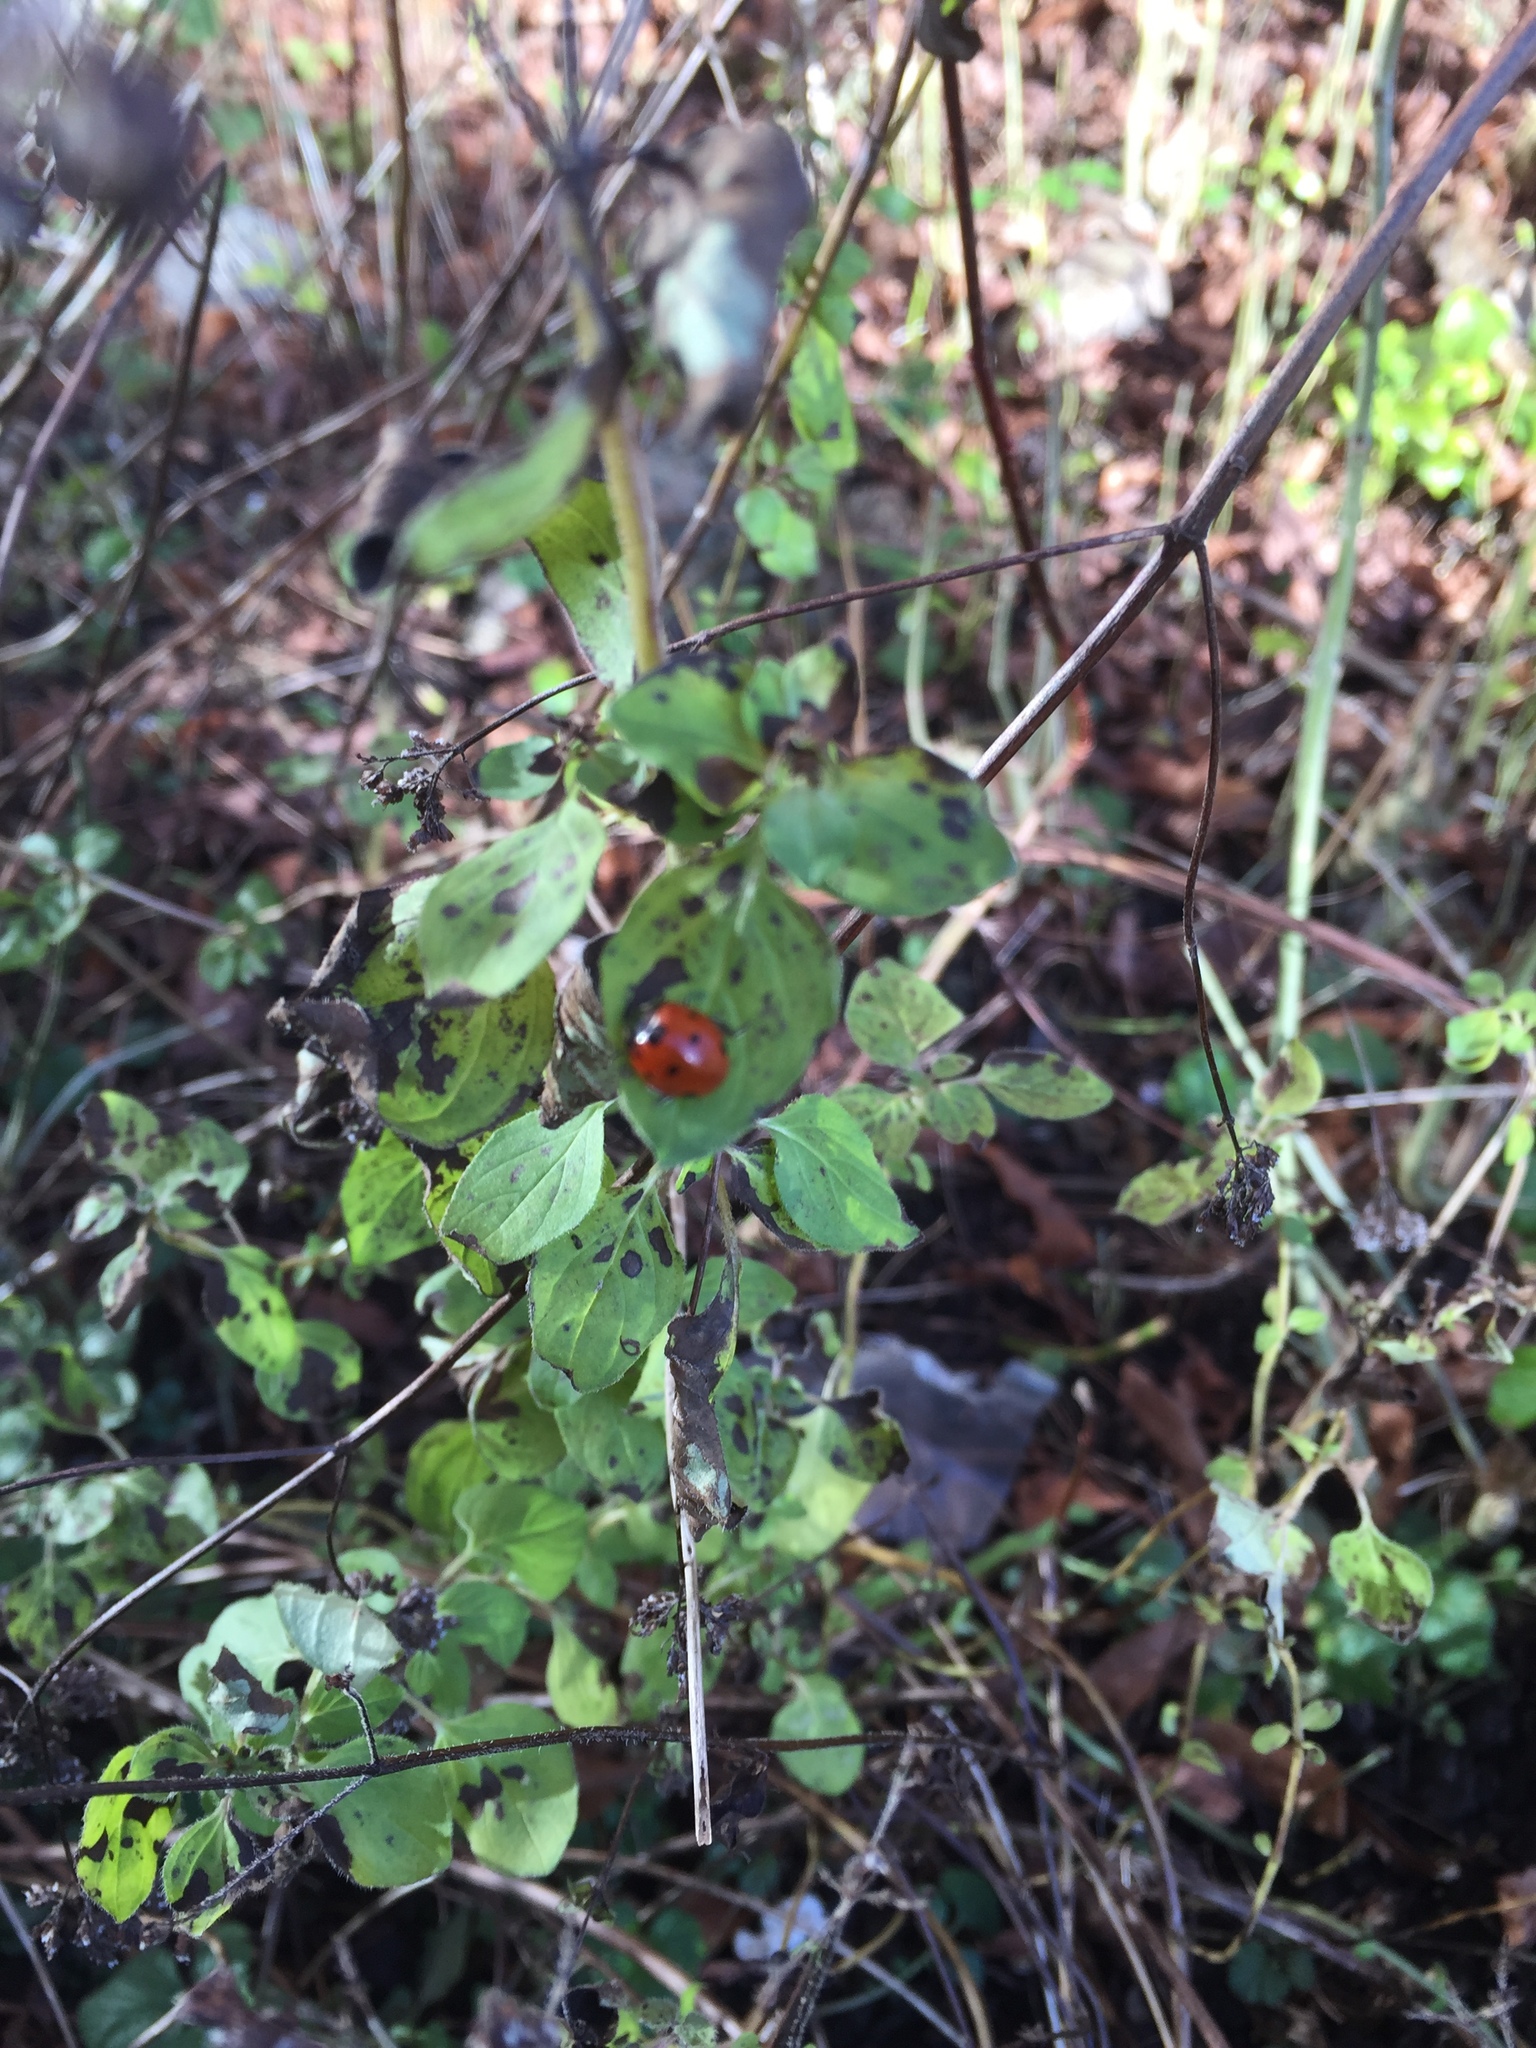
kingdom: Animalia
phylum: Arthropoda
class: Insecta
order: Coleoptera
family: Coccinellidae
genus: Coccinella
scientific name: Coccinella septempunctata
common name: Sevenspotted lady beetle
